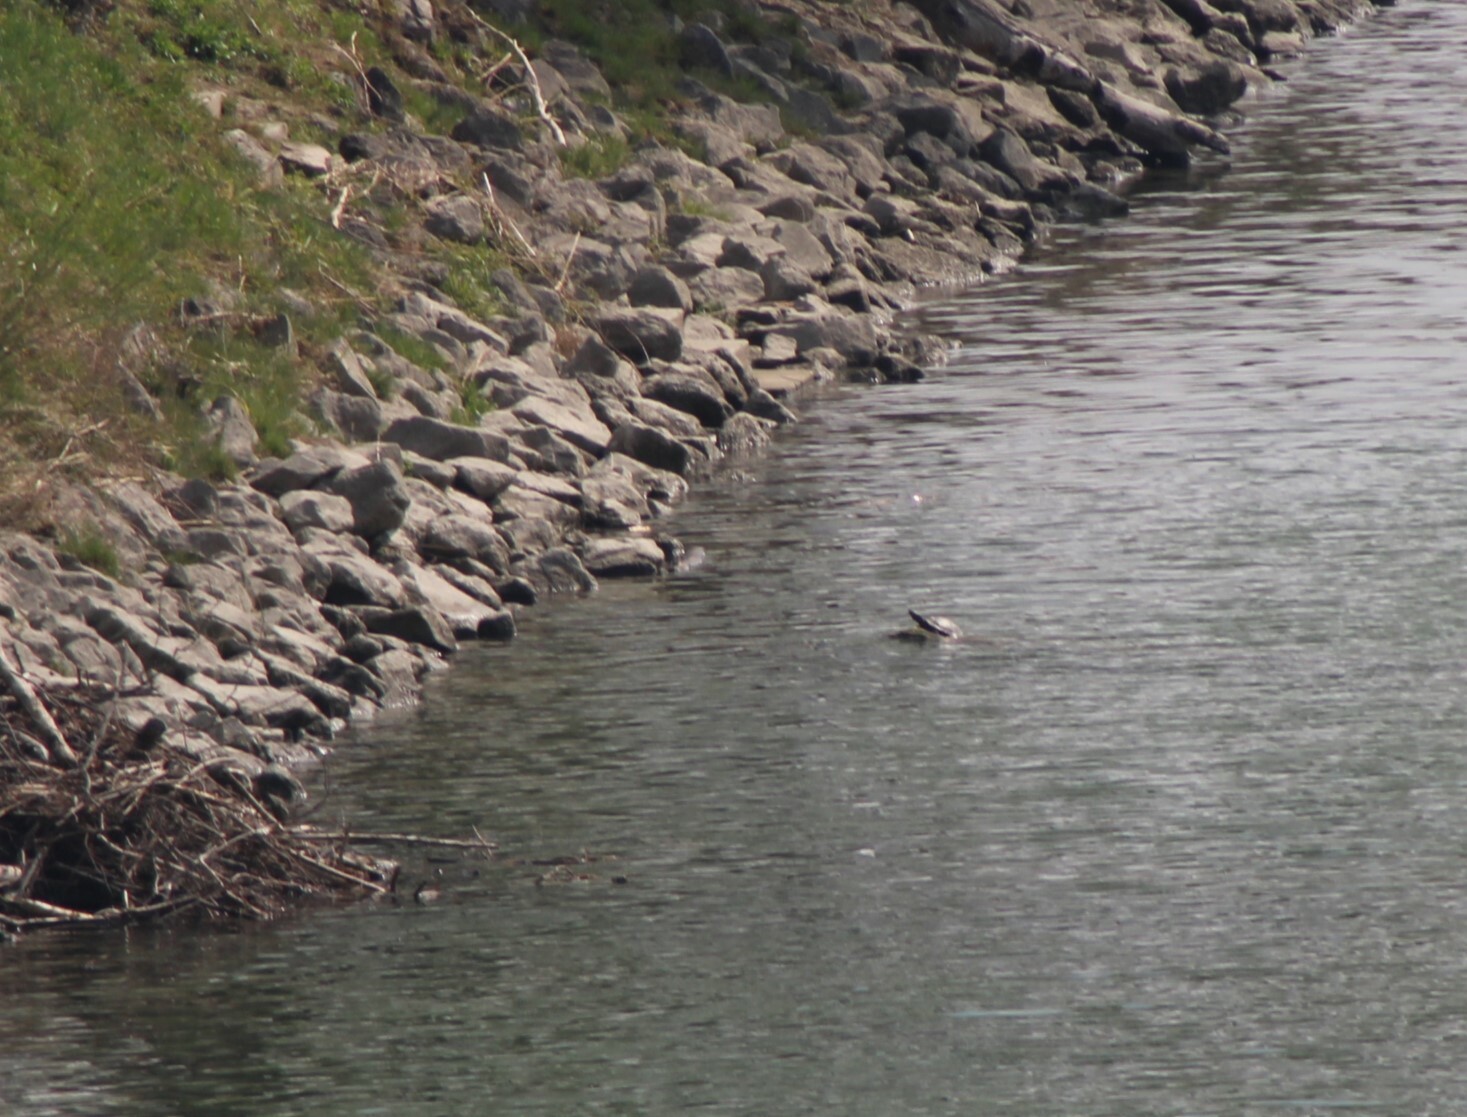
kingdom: Animalia
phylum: Chordata
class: Testudines
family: Emydidae
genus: Trachemys
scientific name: Trachemys scripta
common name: Slider
